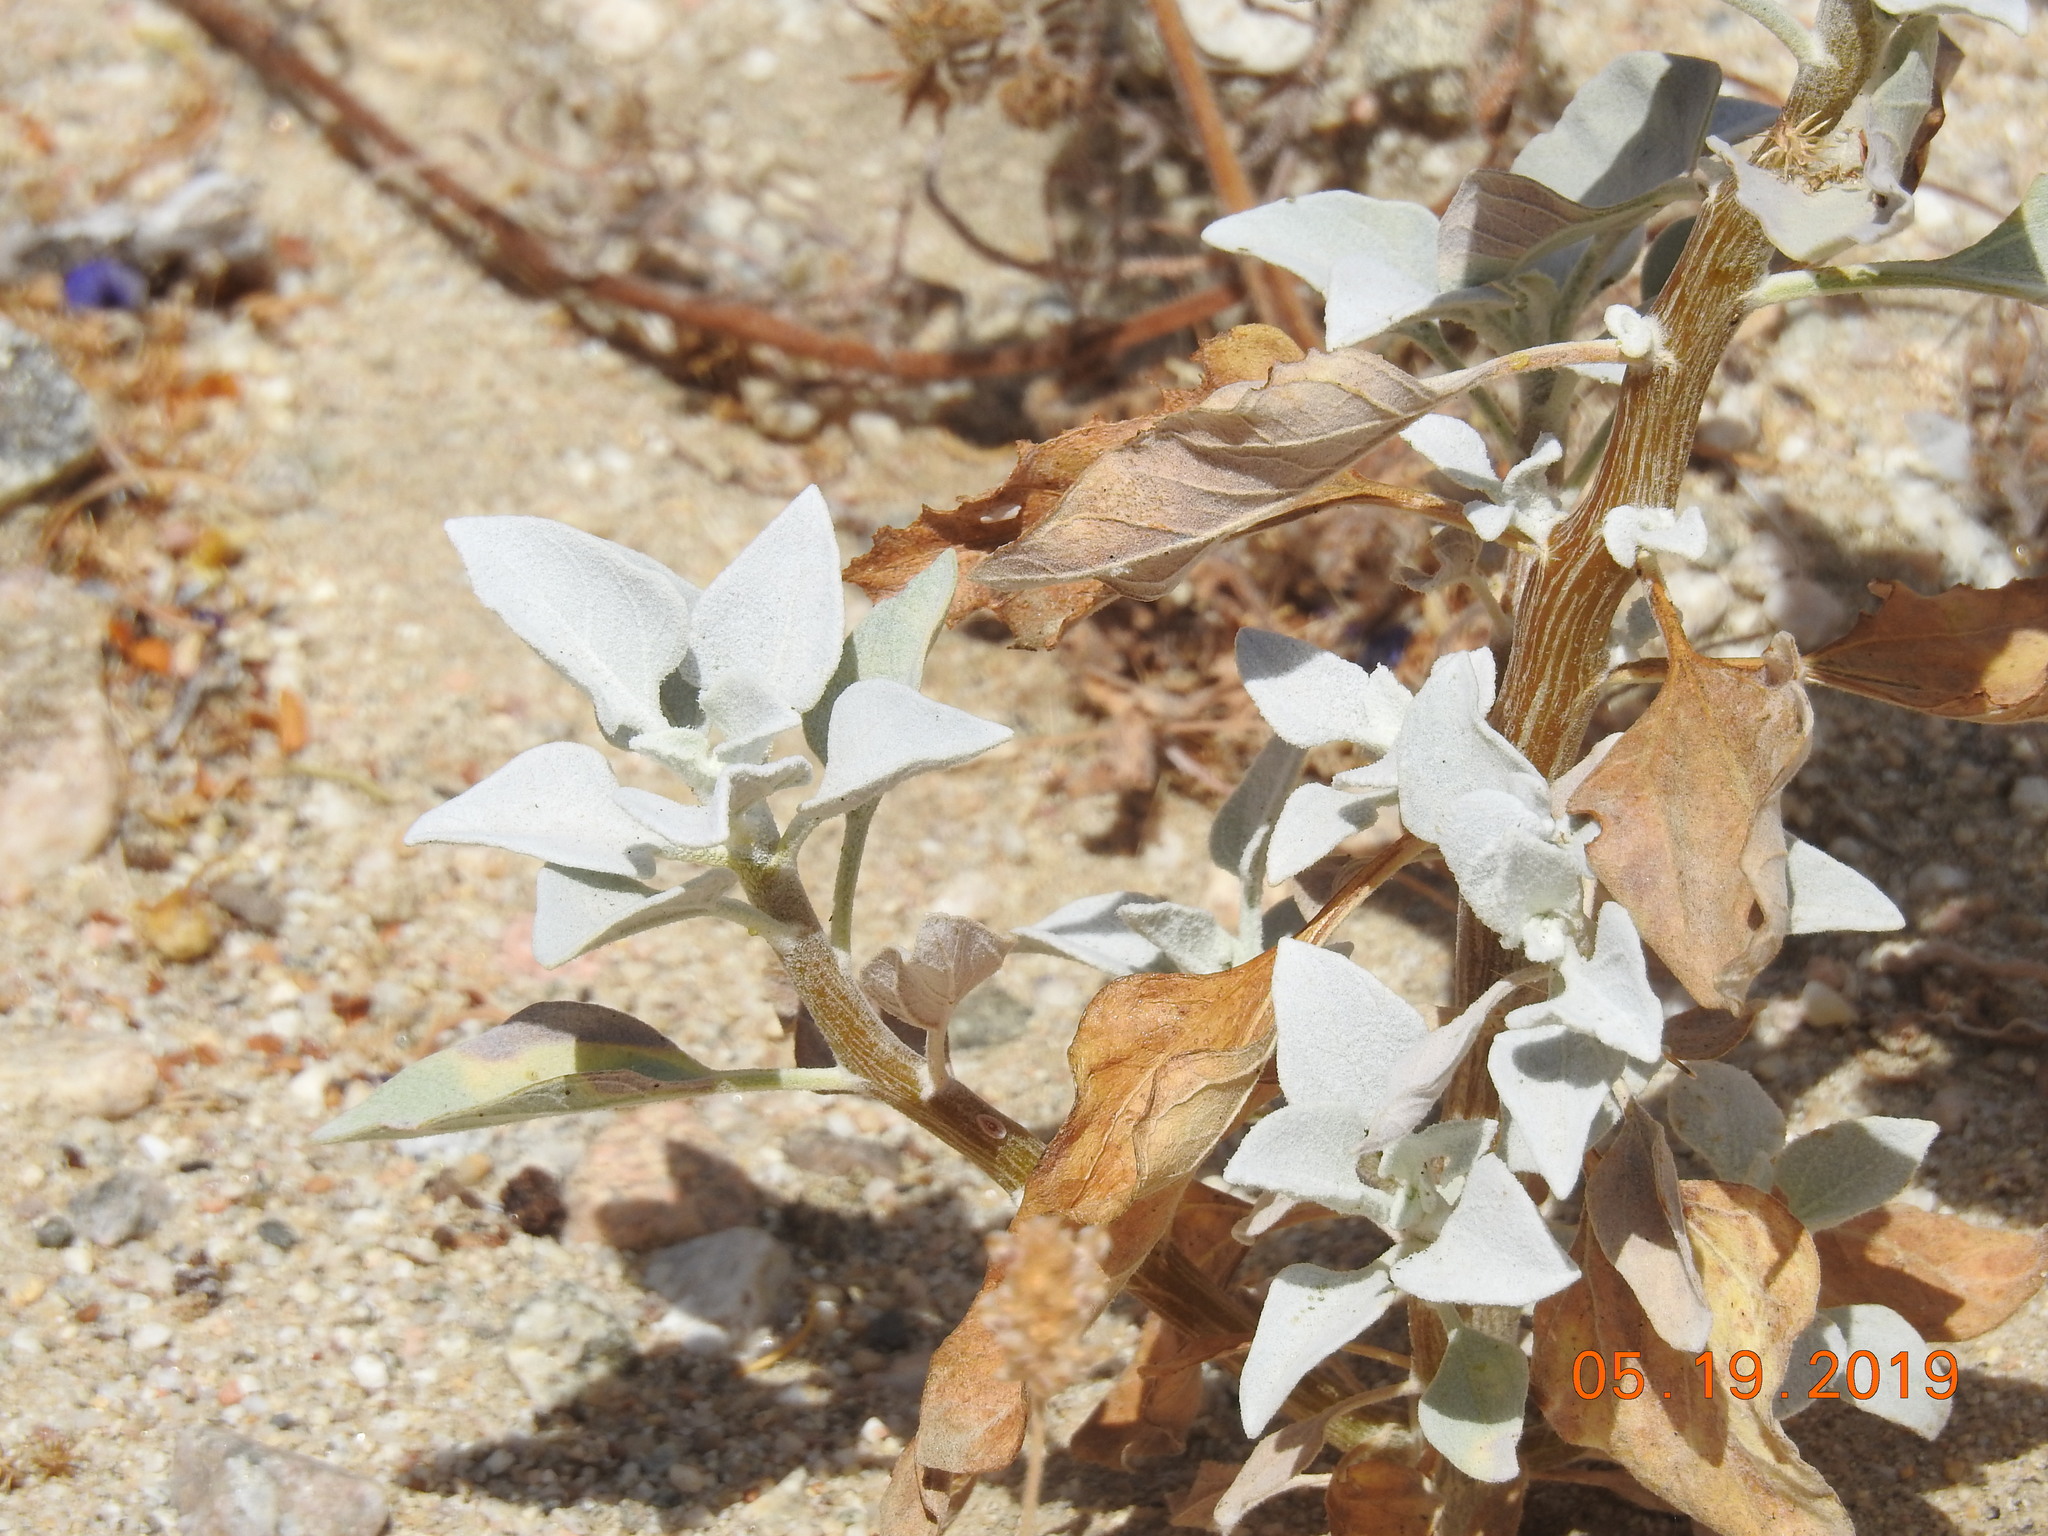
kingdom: Plantae
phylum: Tracheophyta
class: Magnoliopsida
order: Asterales
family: Asteraceae
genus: Encelia
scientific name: Encelia farinosa
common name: Brittlebush
